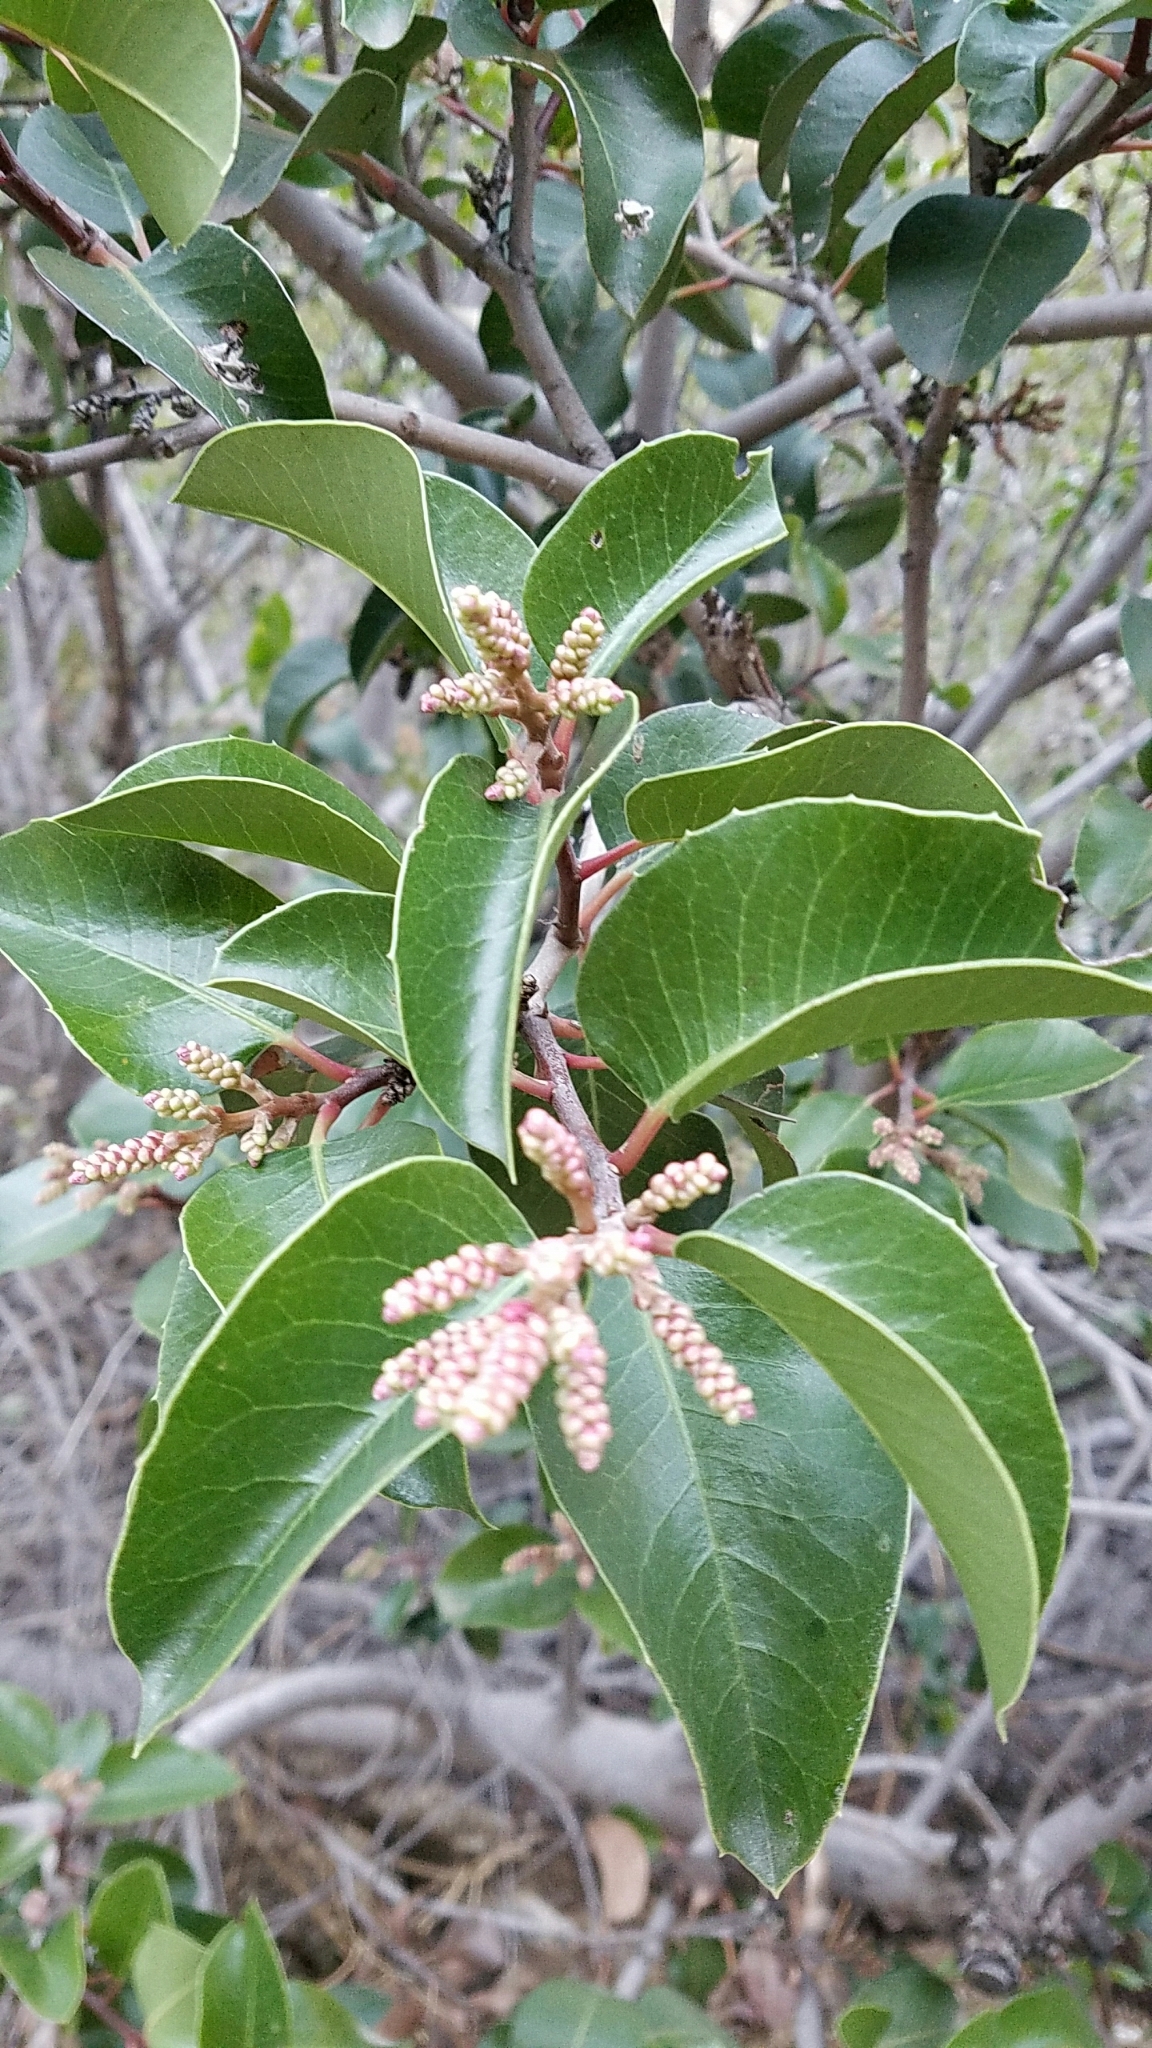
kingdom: Plantae
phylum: Tracheophyta
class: Magnoliopsida
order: Sapindales
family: Anacardiaceae
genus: Rhus
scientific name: Rhus ovata
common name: Sugar sumac
